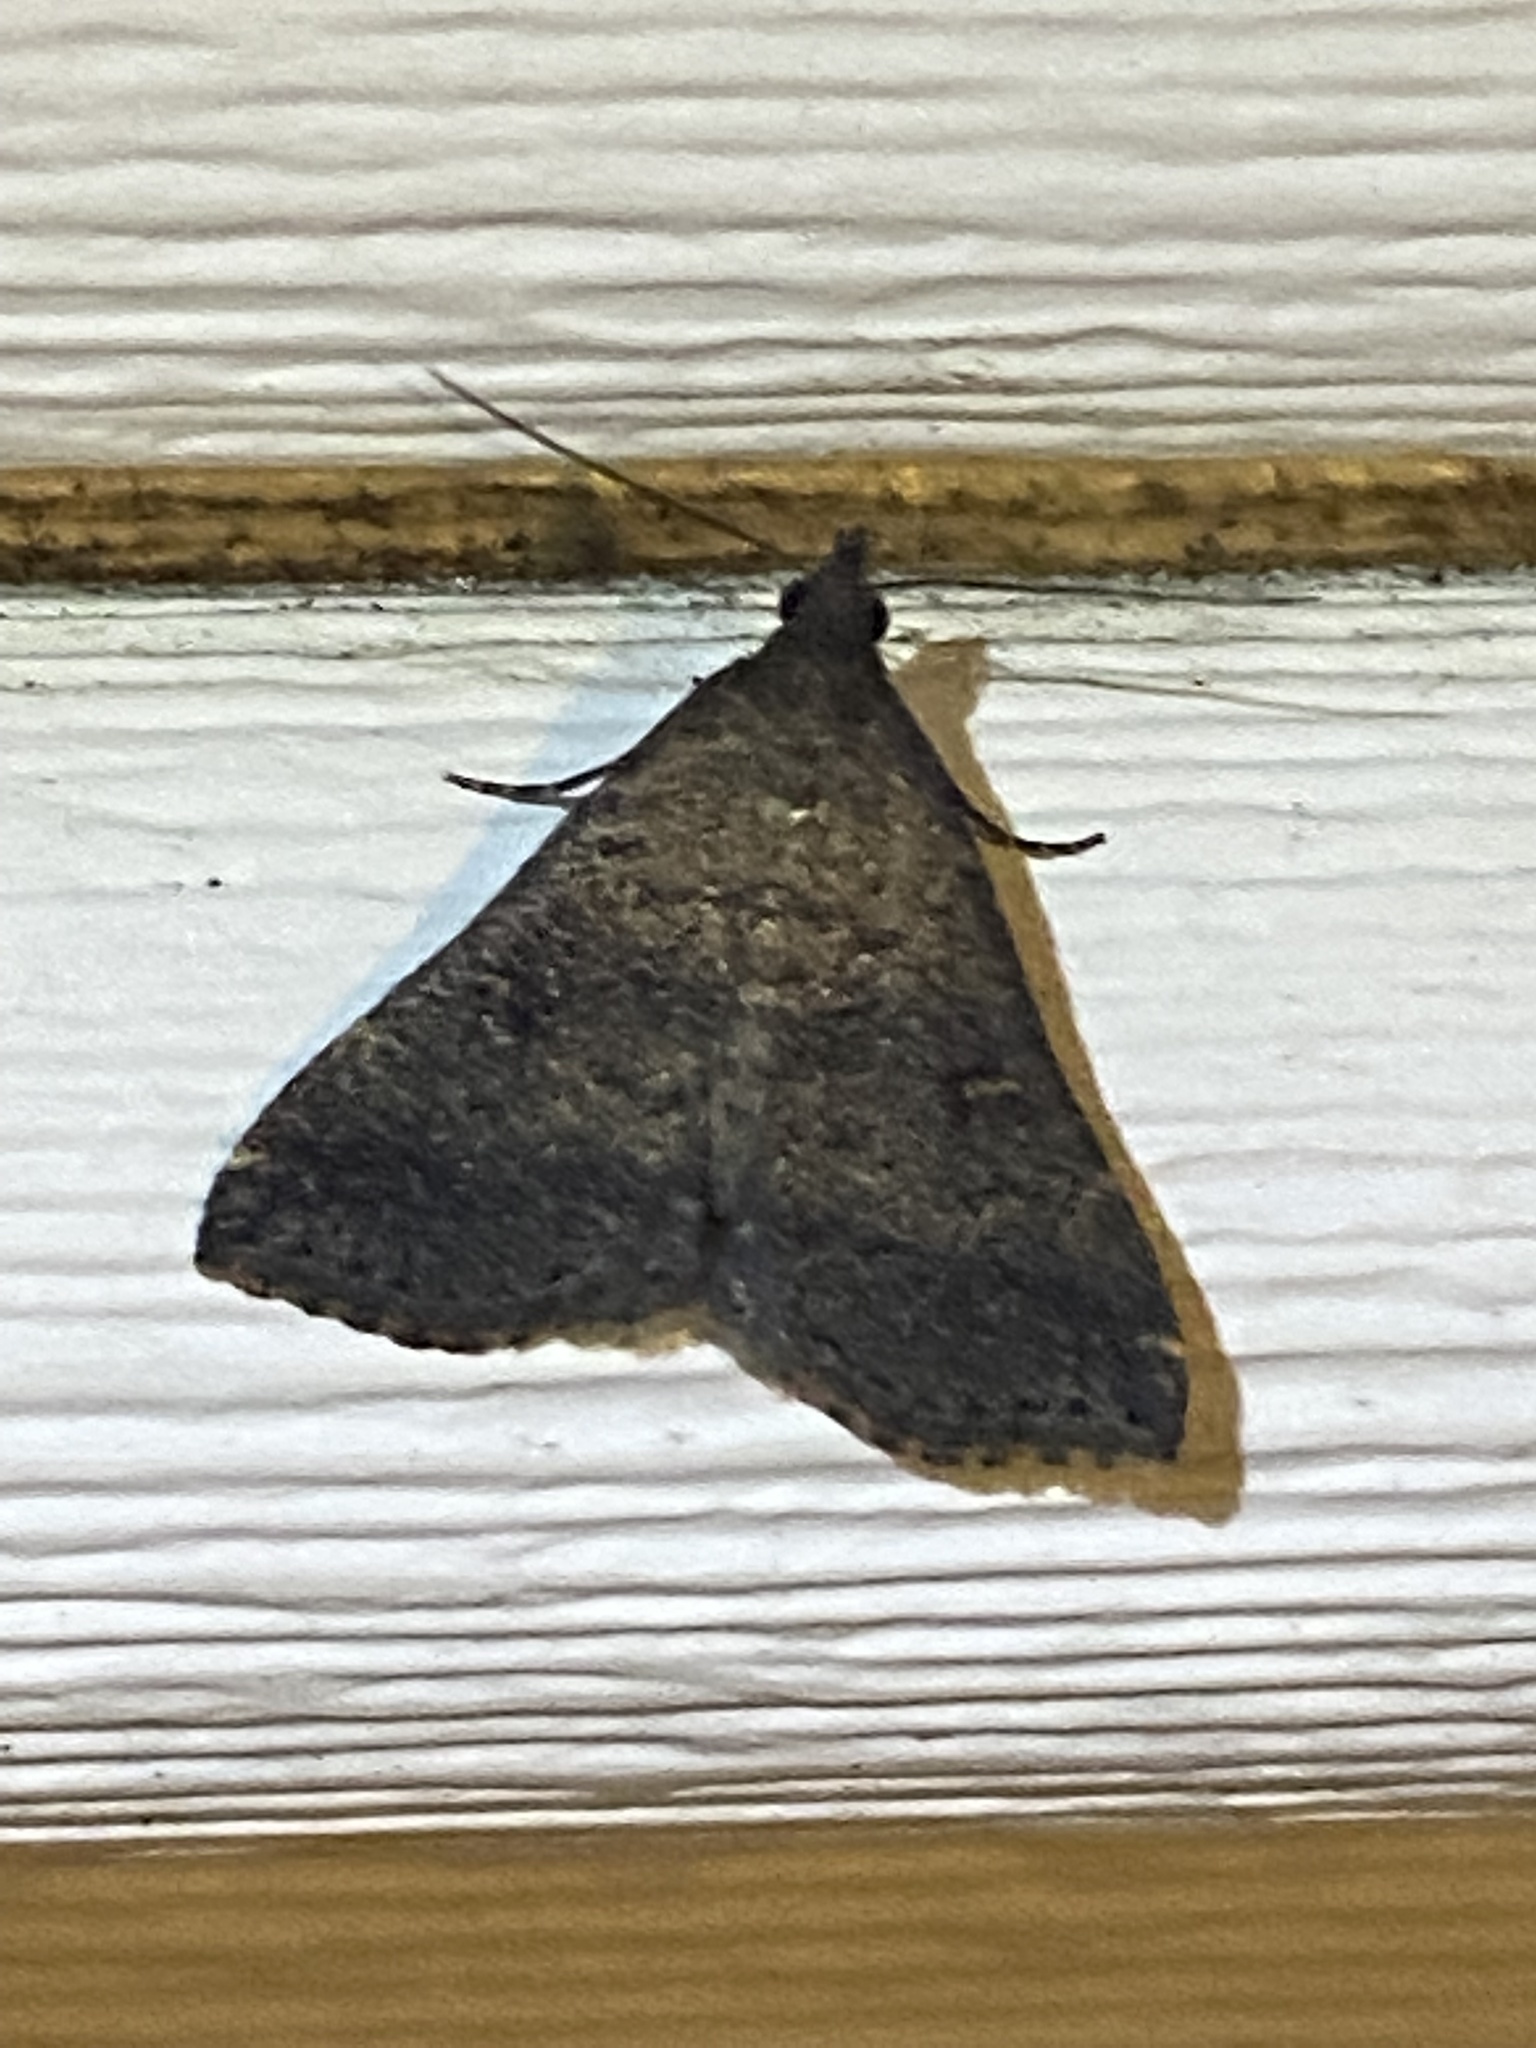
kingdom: Animalia
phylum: Arthropoda
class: Insecta
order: Lepidoptera
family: Erebidae
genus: Tetanolita
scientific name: Tetanolita mynesalis
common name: Smoky tetanolita moth
